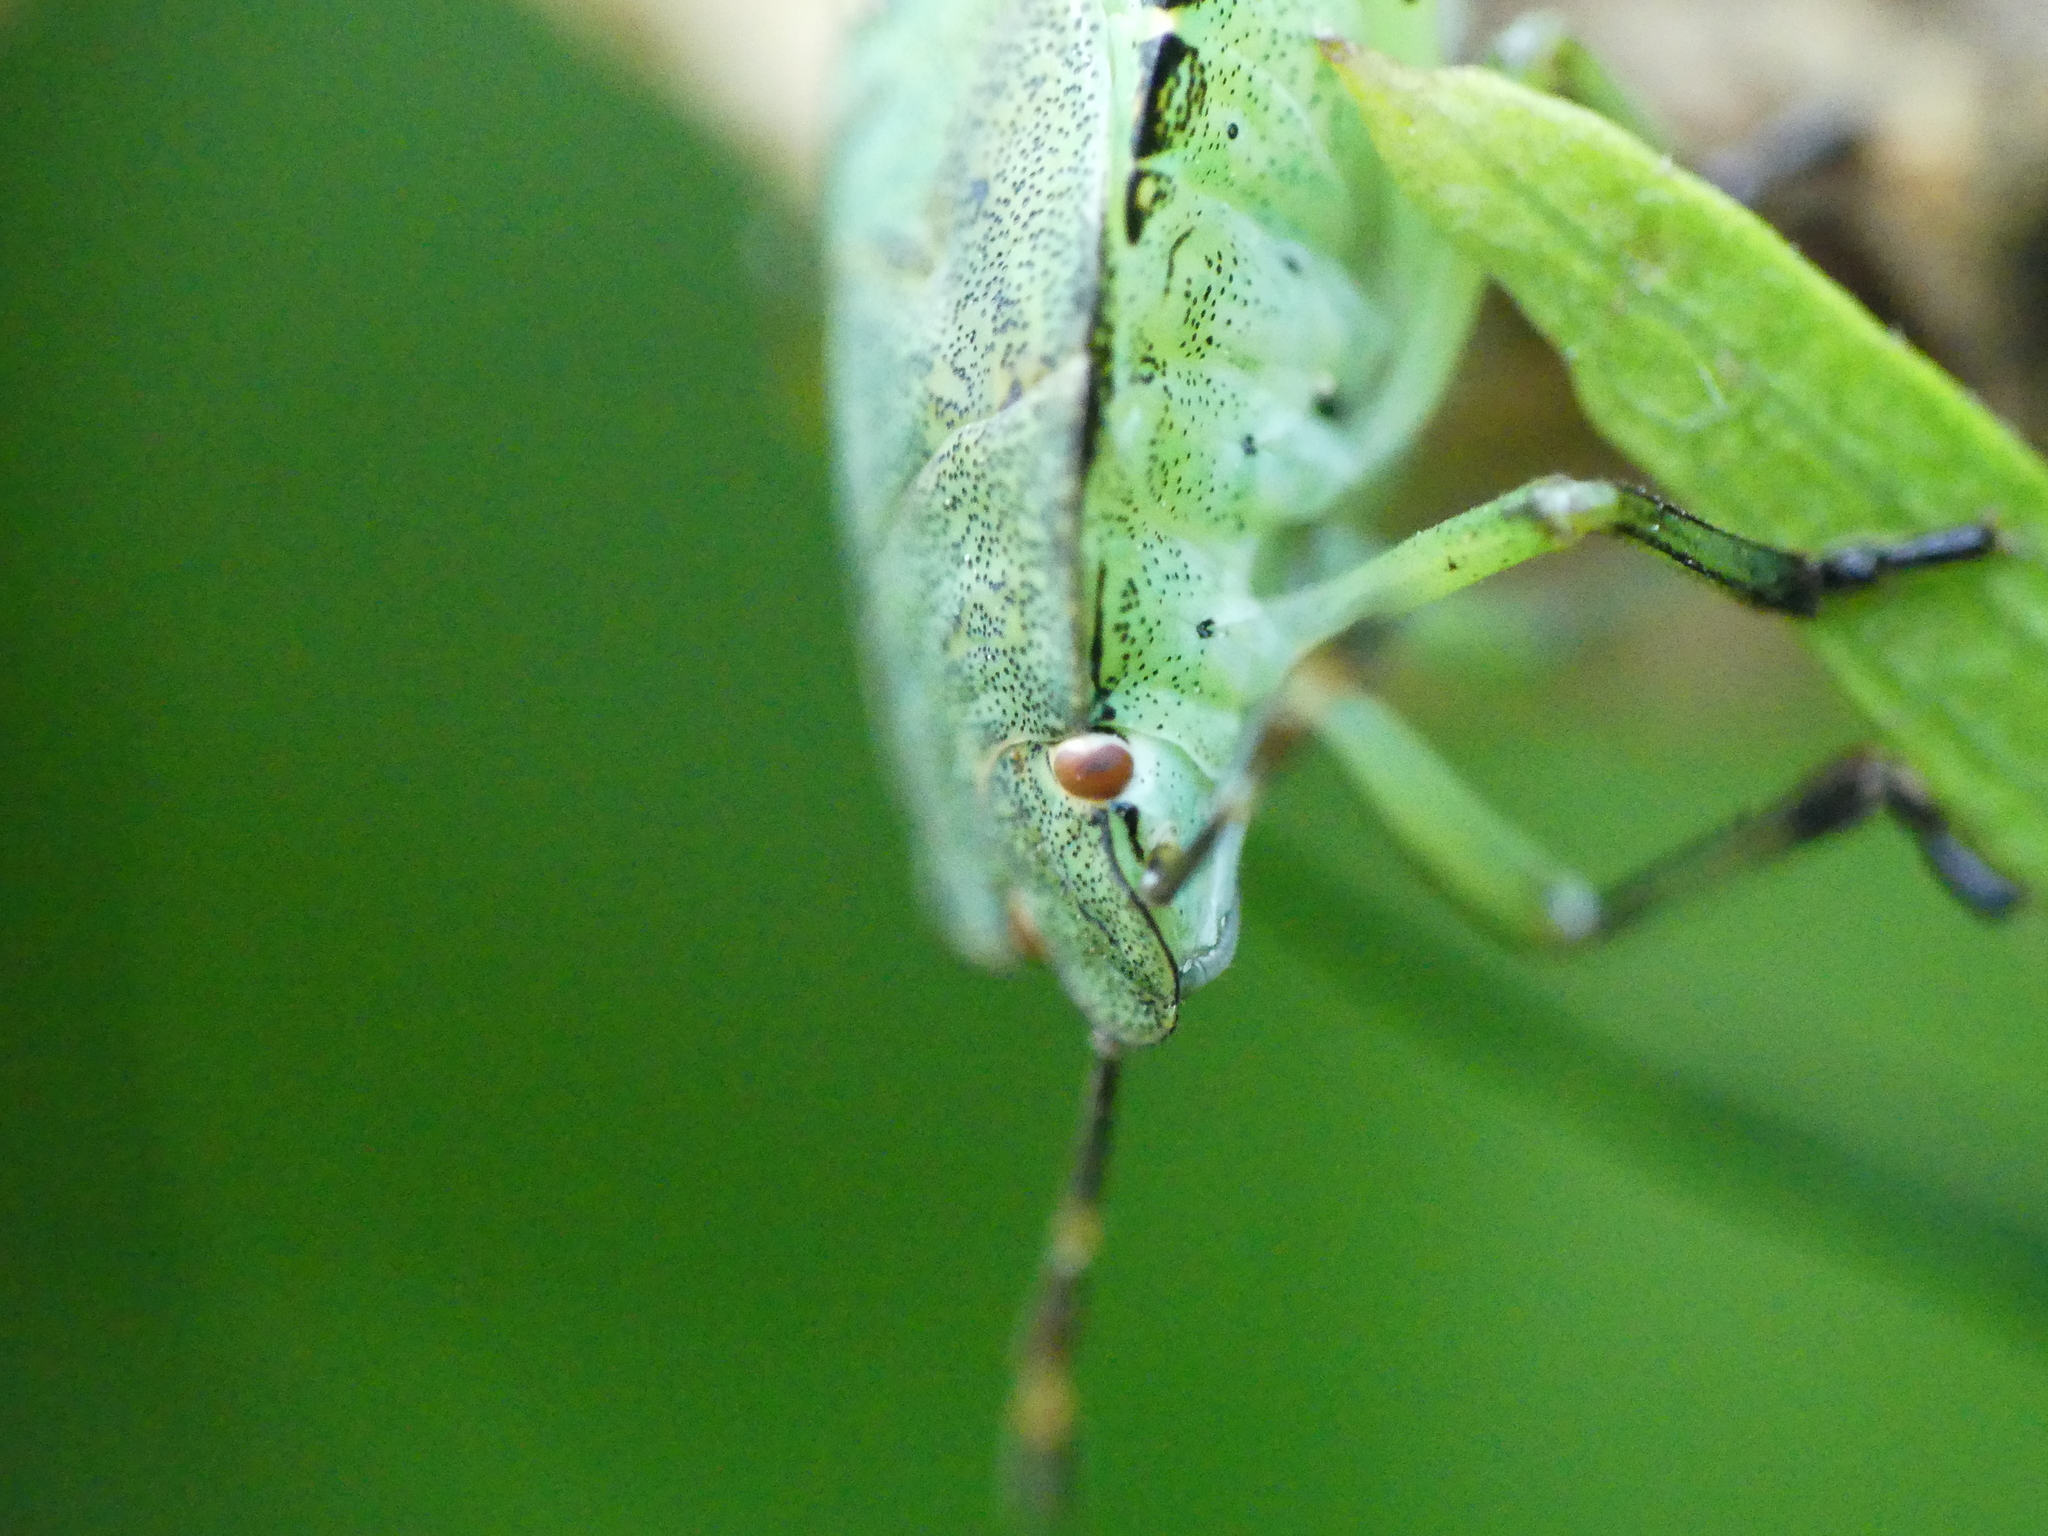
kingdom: Animalia
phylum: Arthropoda
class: Insecta
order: Hemiptera
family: Pentatomidae
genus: Palomena
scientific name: Palomena prasina
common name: Green shieldbug
